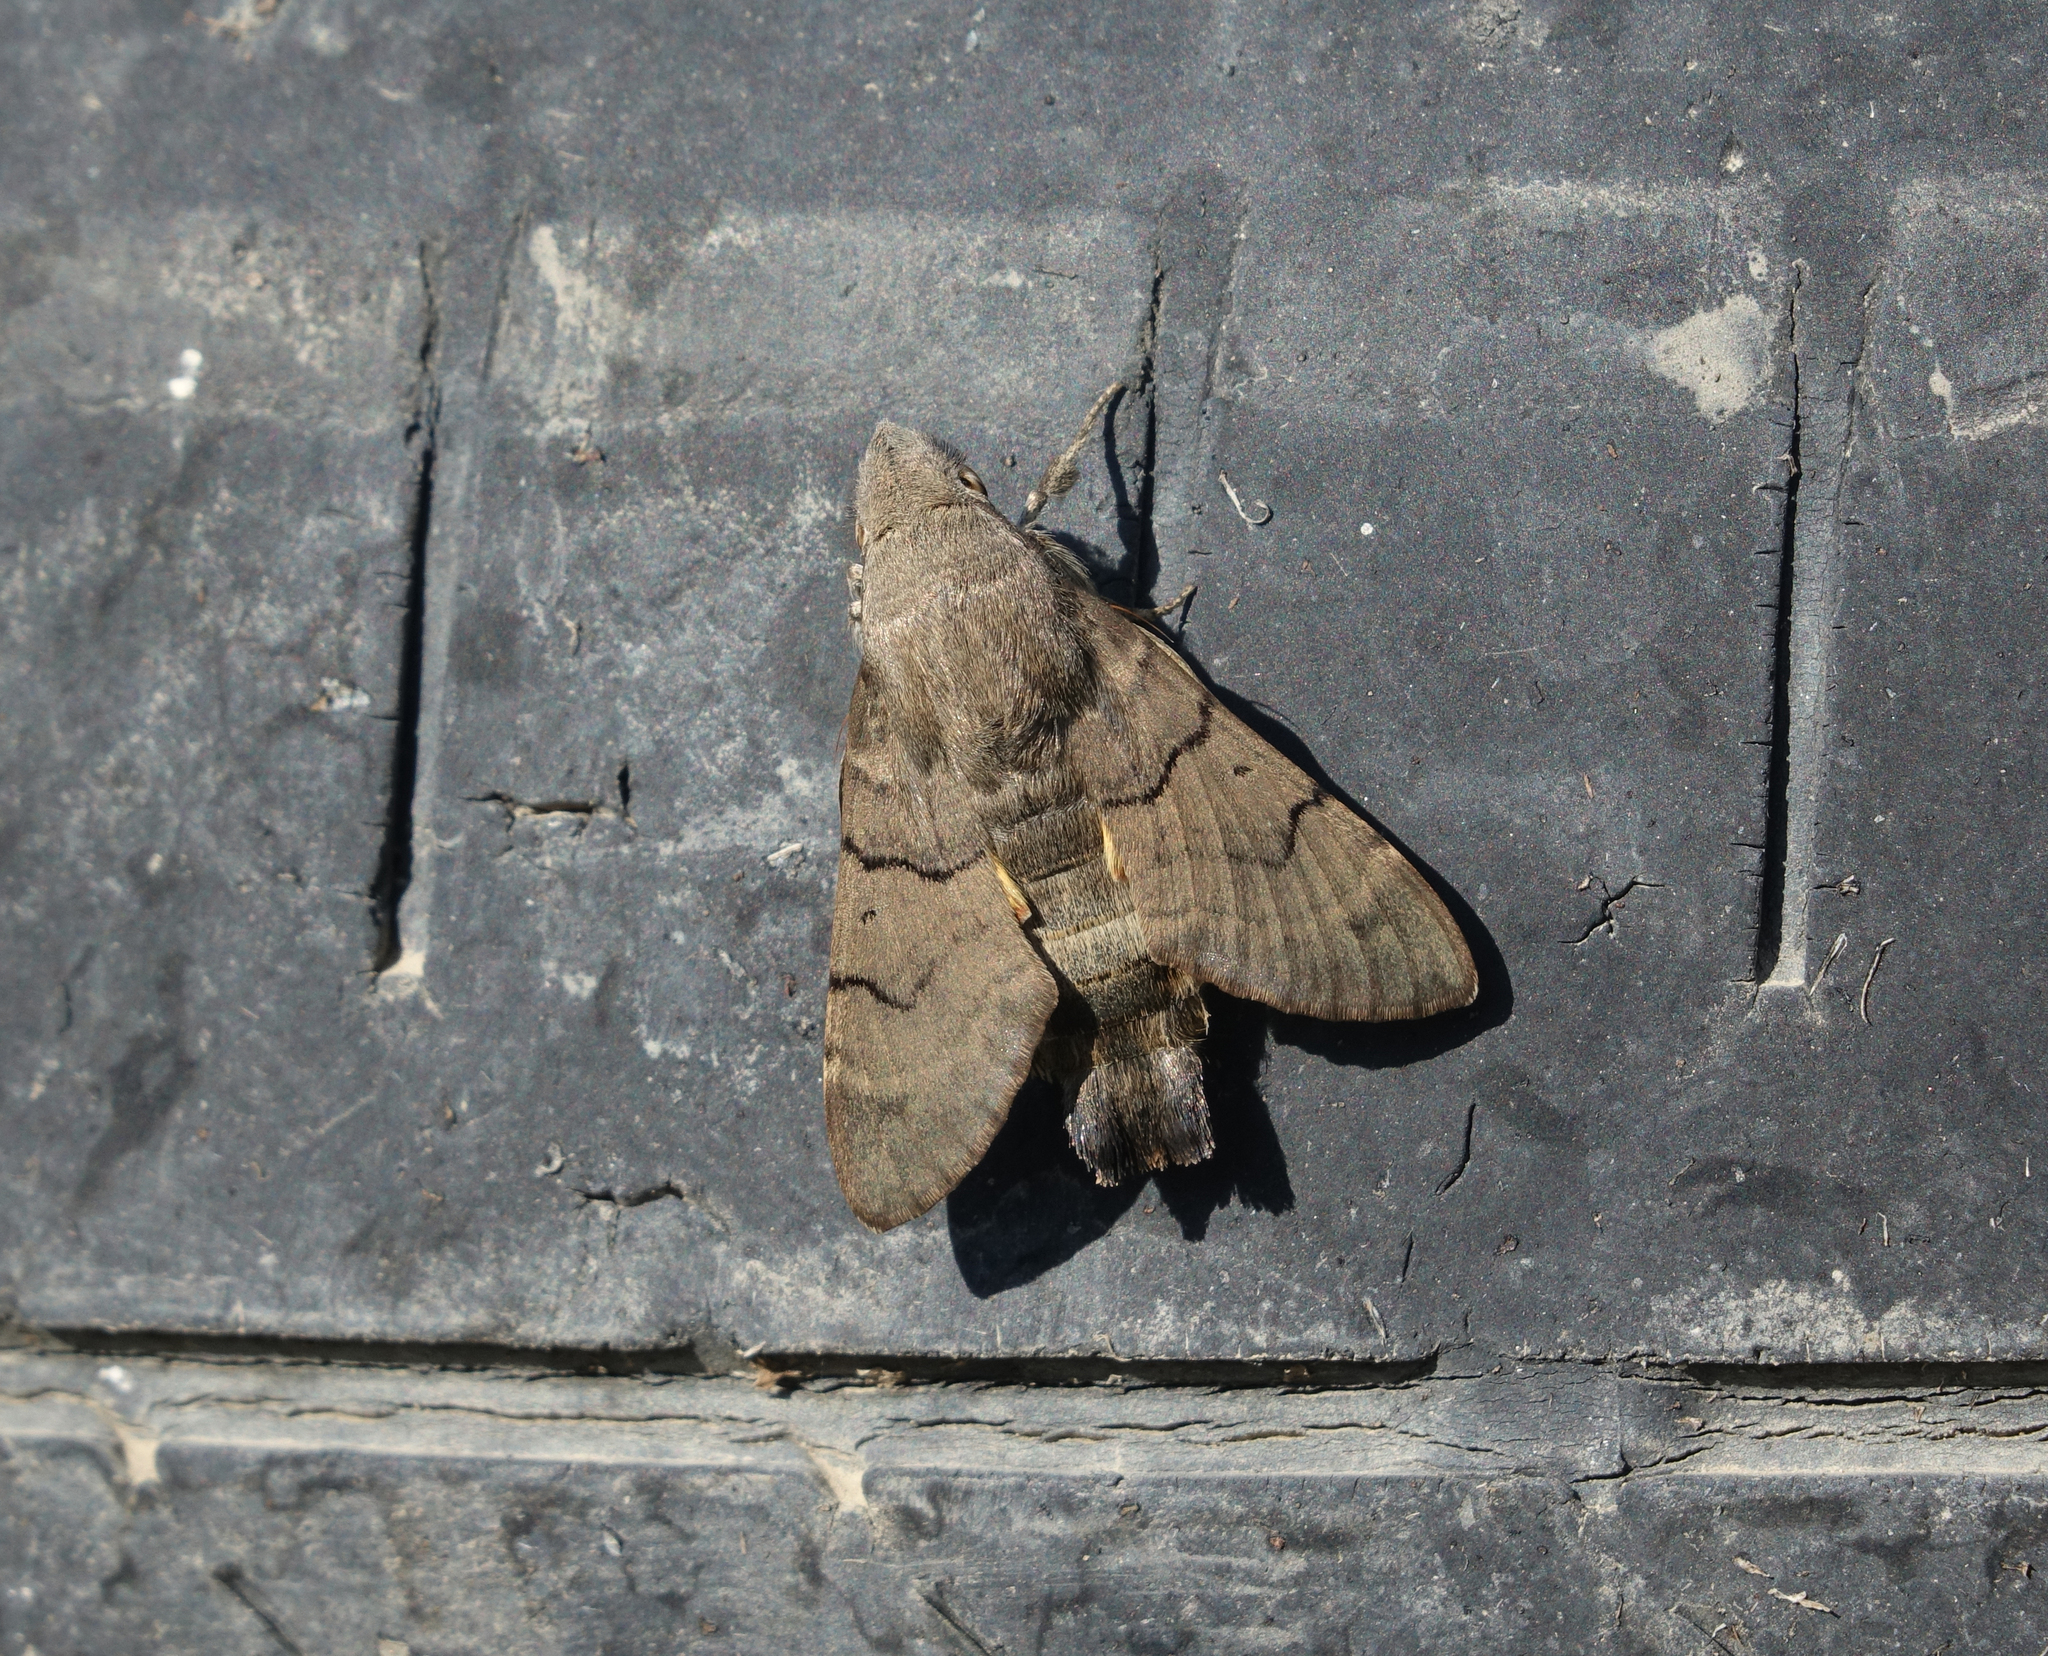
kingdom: Animalia
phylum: Arthropoda
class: Insecta
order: Lepidoptera
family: Sphingidae
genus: Macroglossum
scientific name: Macroglossum stellatarum
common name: Humming-bird hawk-moth
